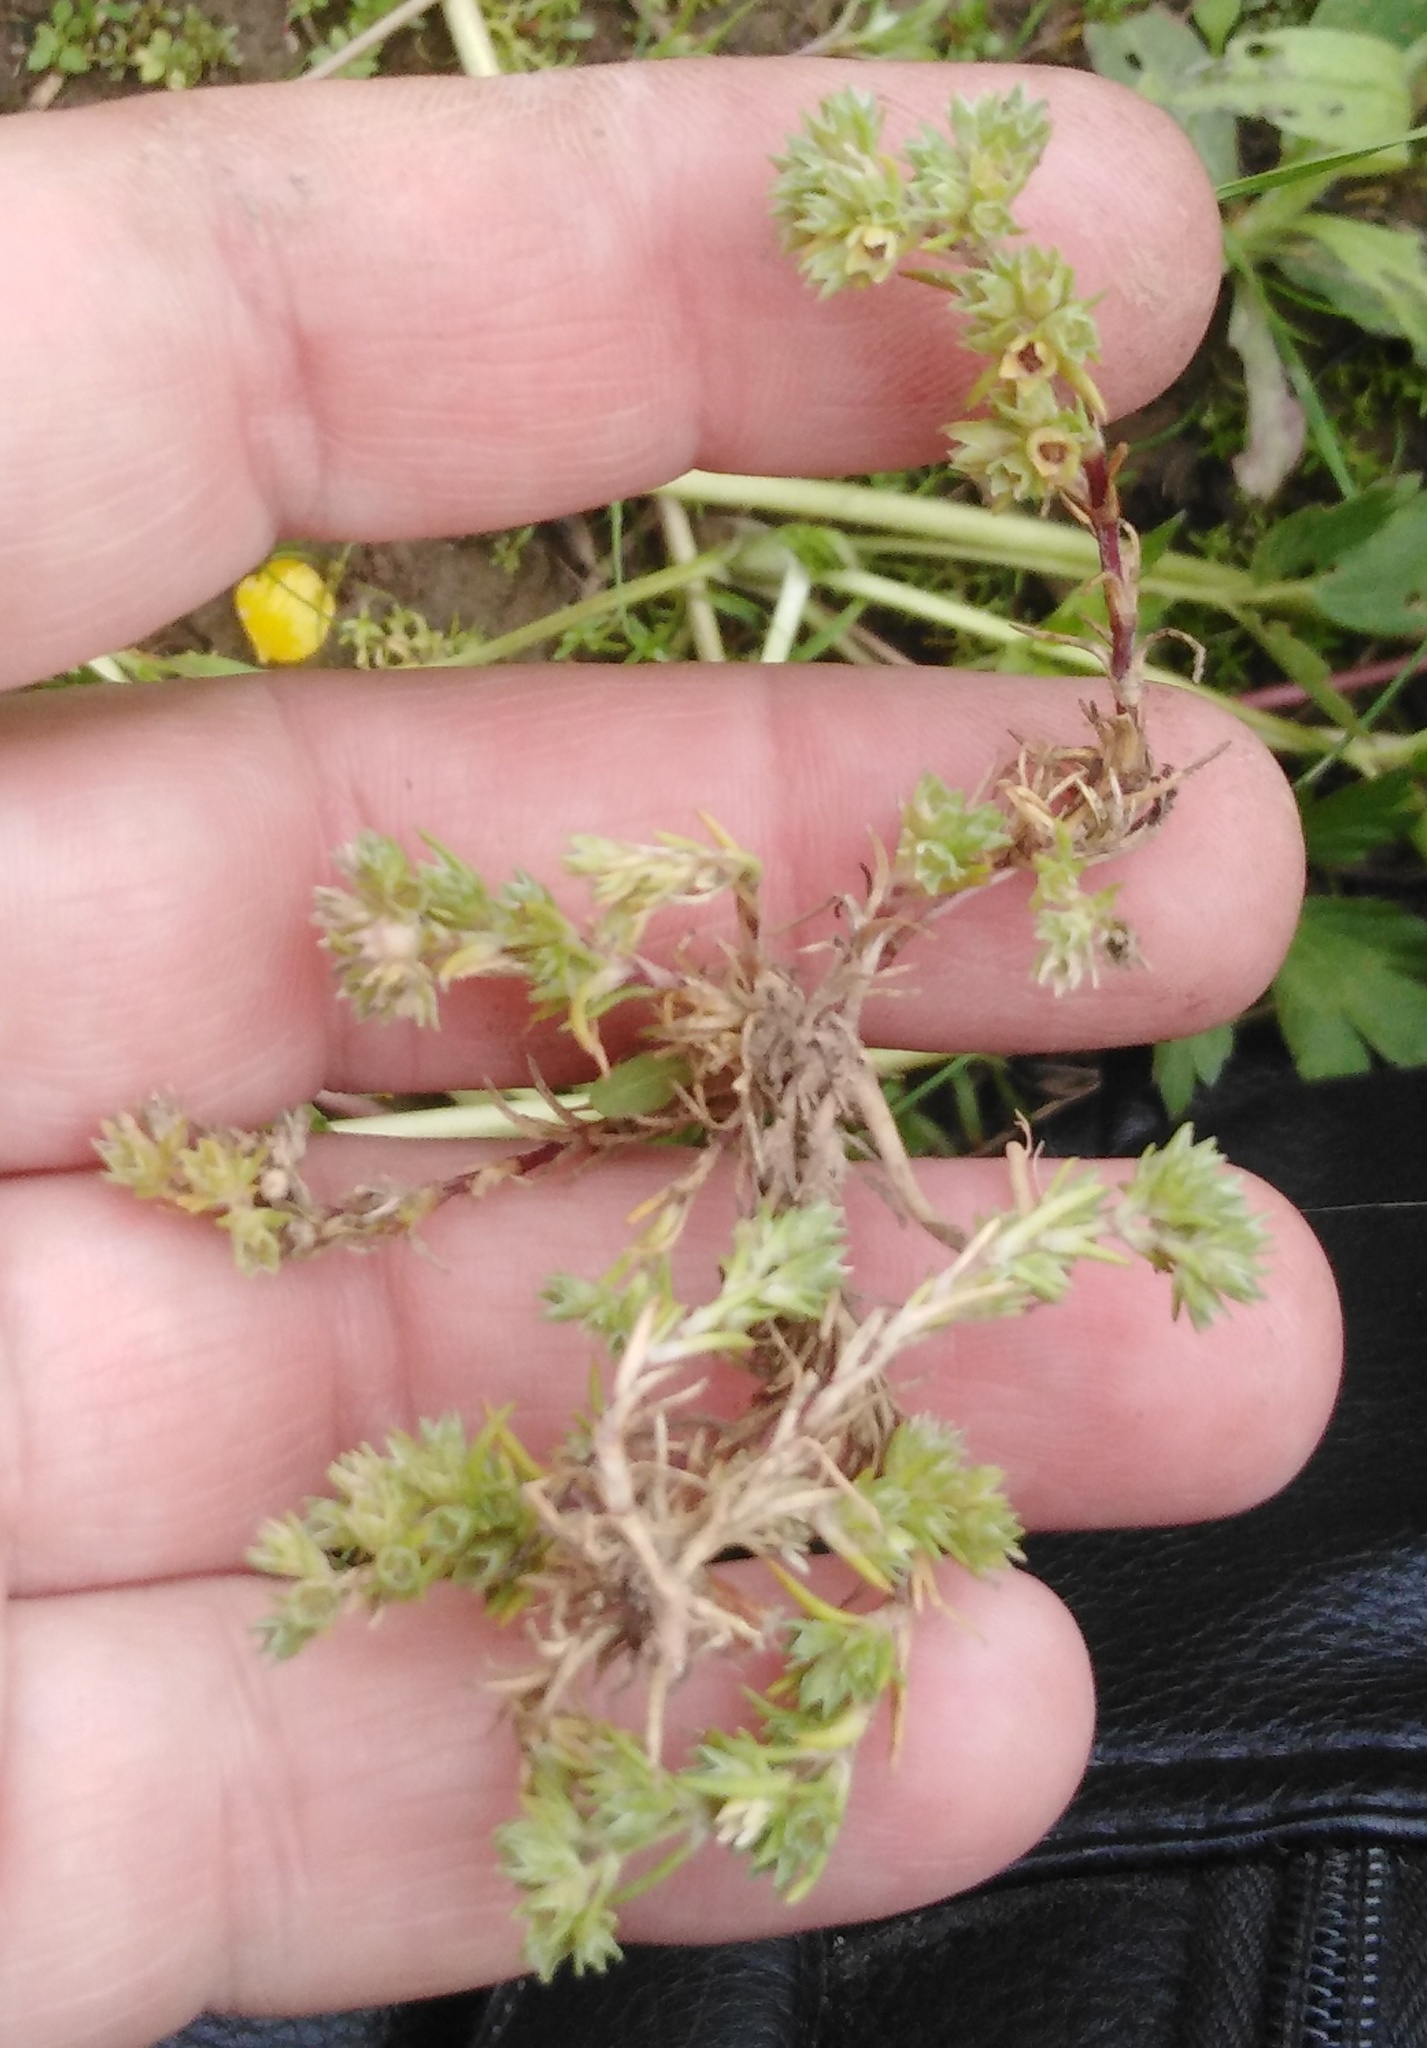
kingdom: Plantae
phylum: Tracheophyta
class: Magnoliopsida
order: Caryophyllales
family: Caryophyllaceae
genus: Scleranthus
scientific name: Scleranthus annuus
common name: Annual knawel
